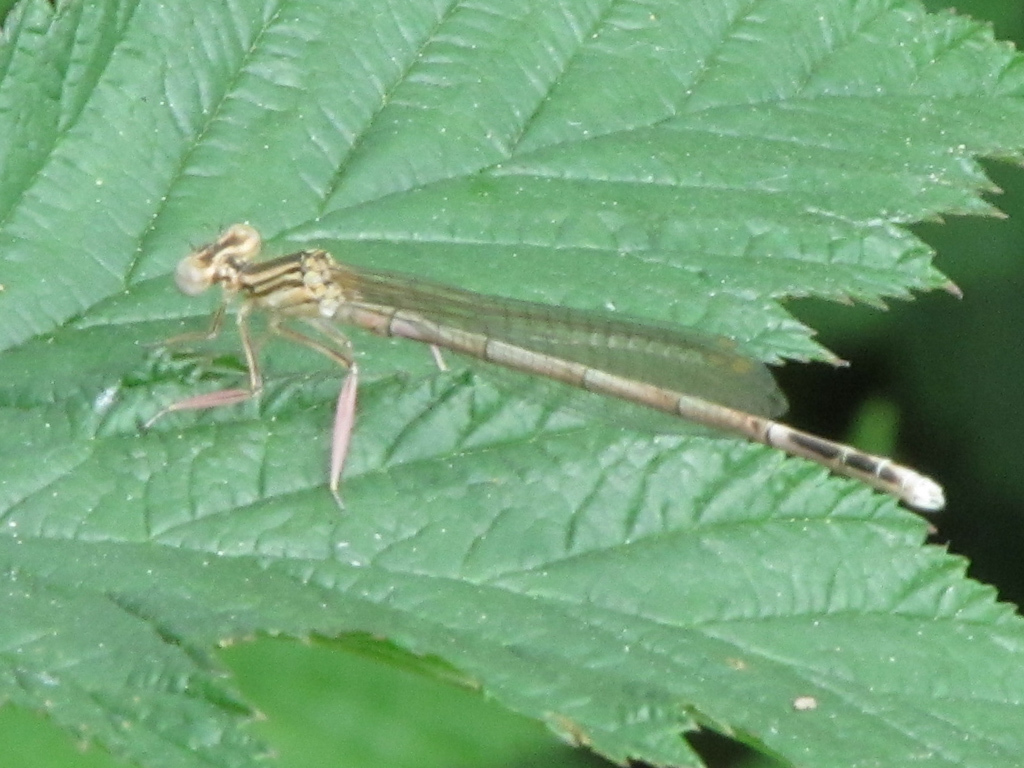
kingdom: Animalia
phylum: Arthropoda
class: Insecta
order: Odonata
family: Platycnemididae
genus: Platycnemis
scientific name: Platycnemis pennipes
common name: White-legged damselfly
